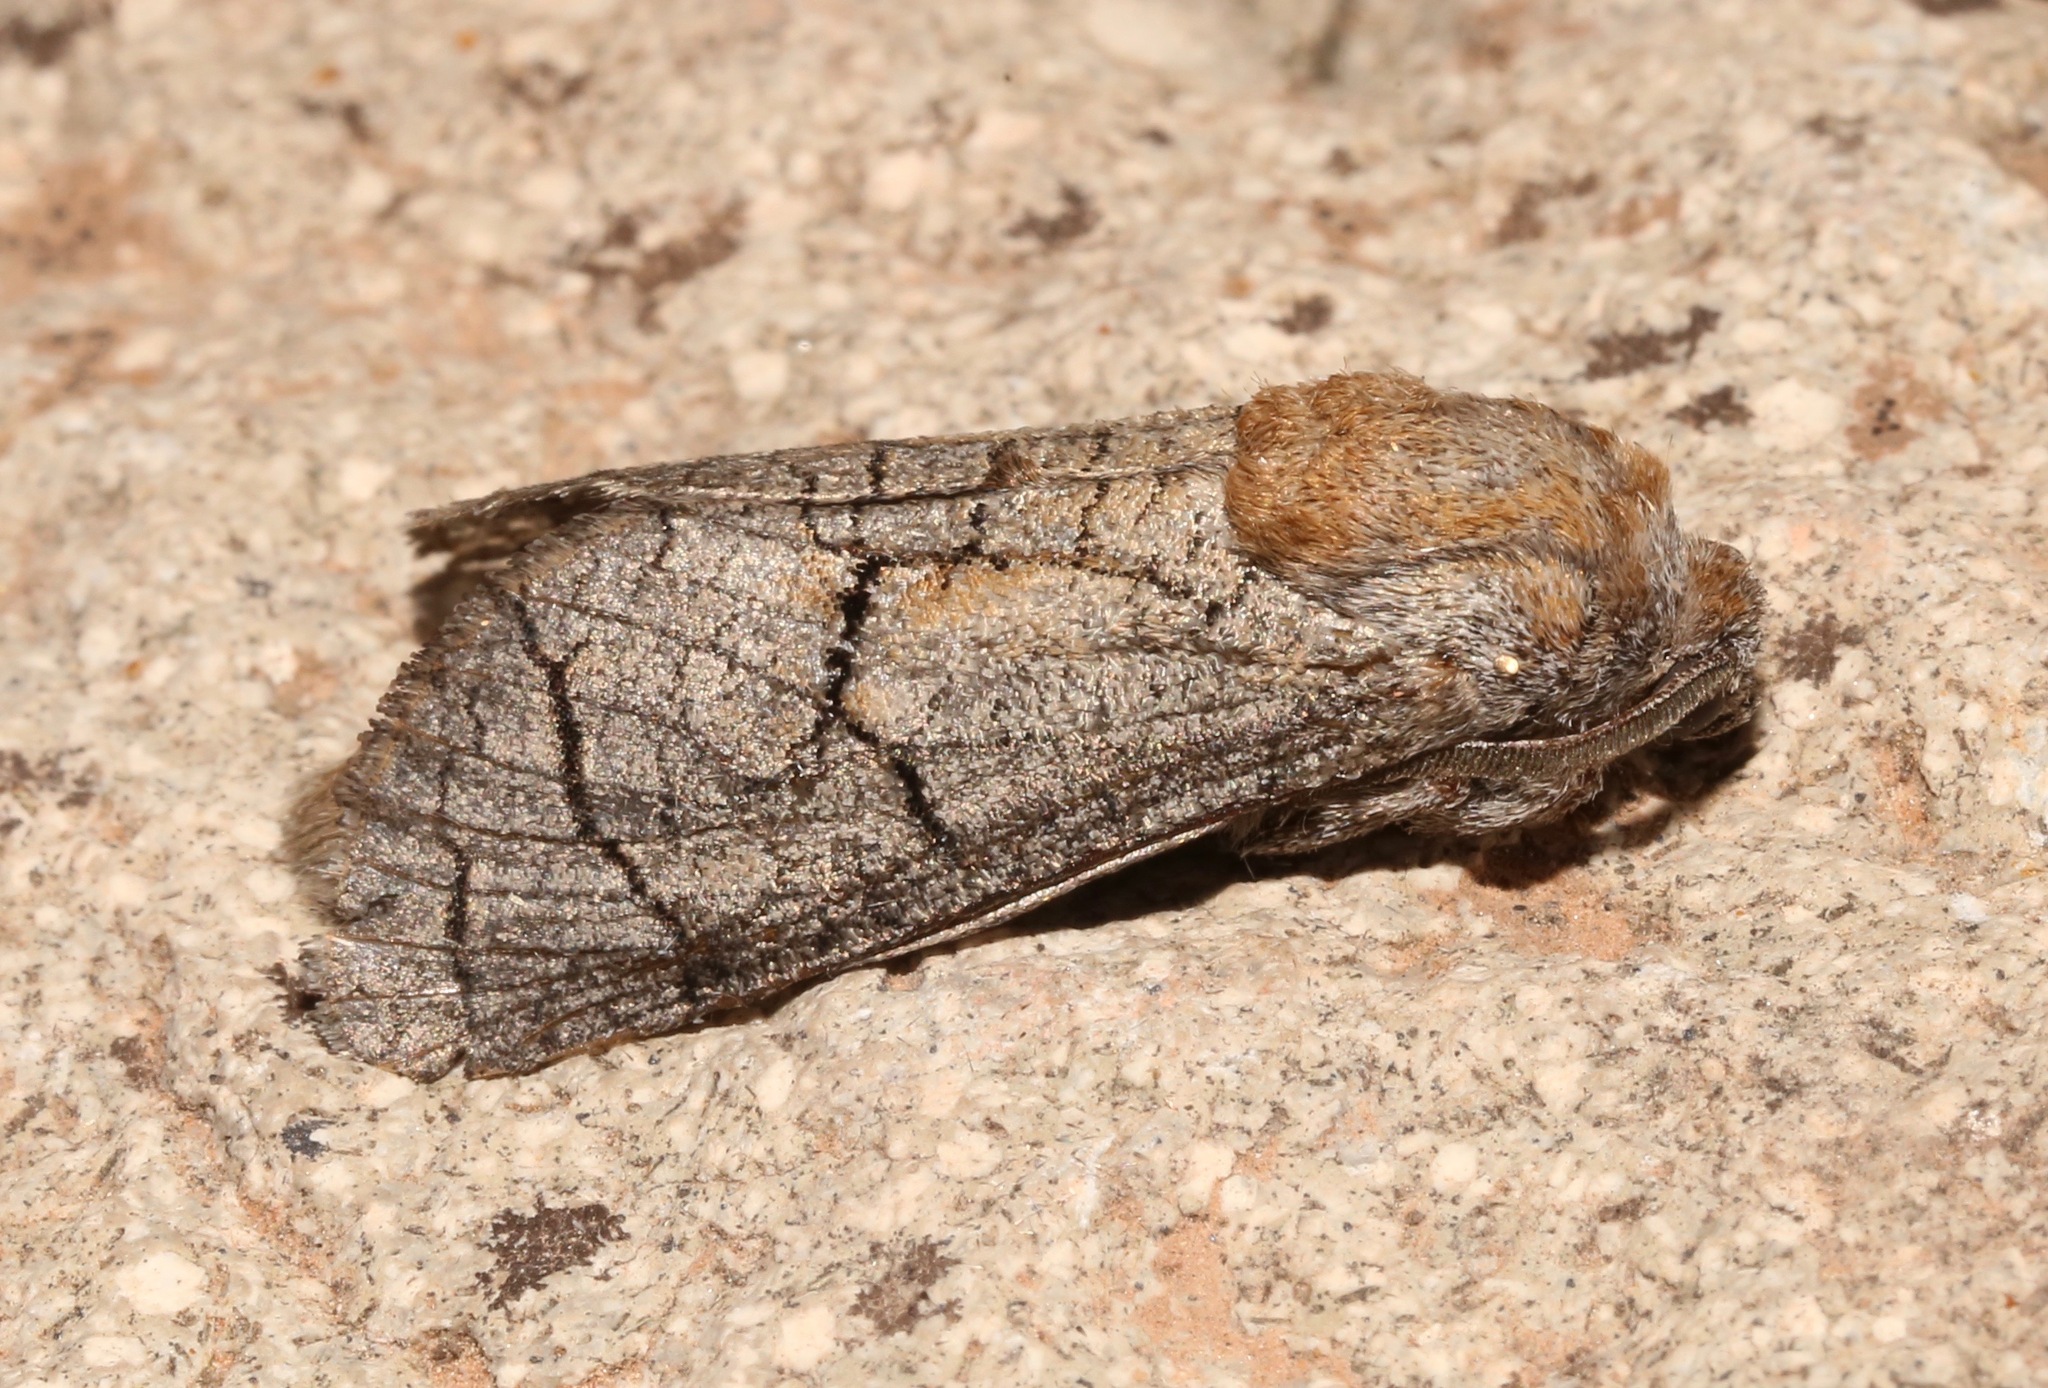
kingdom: Animalia
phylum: Arthropoda
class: Insecta
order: Lepidoptera
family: Cossidae
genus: Toronia
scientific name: Toronia
